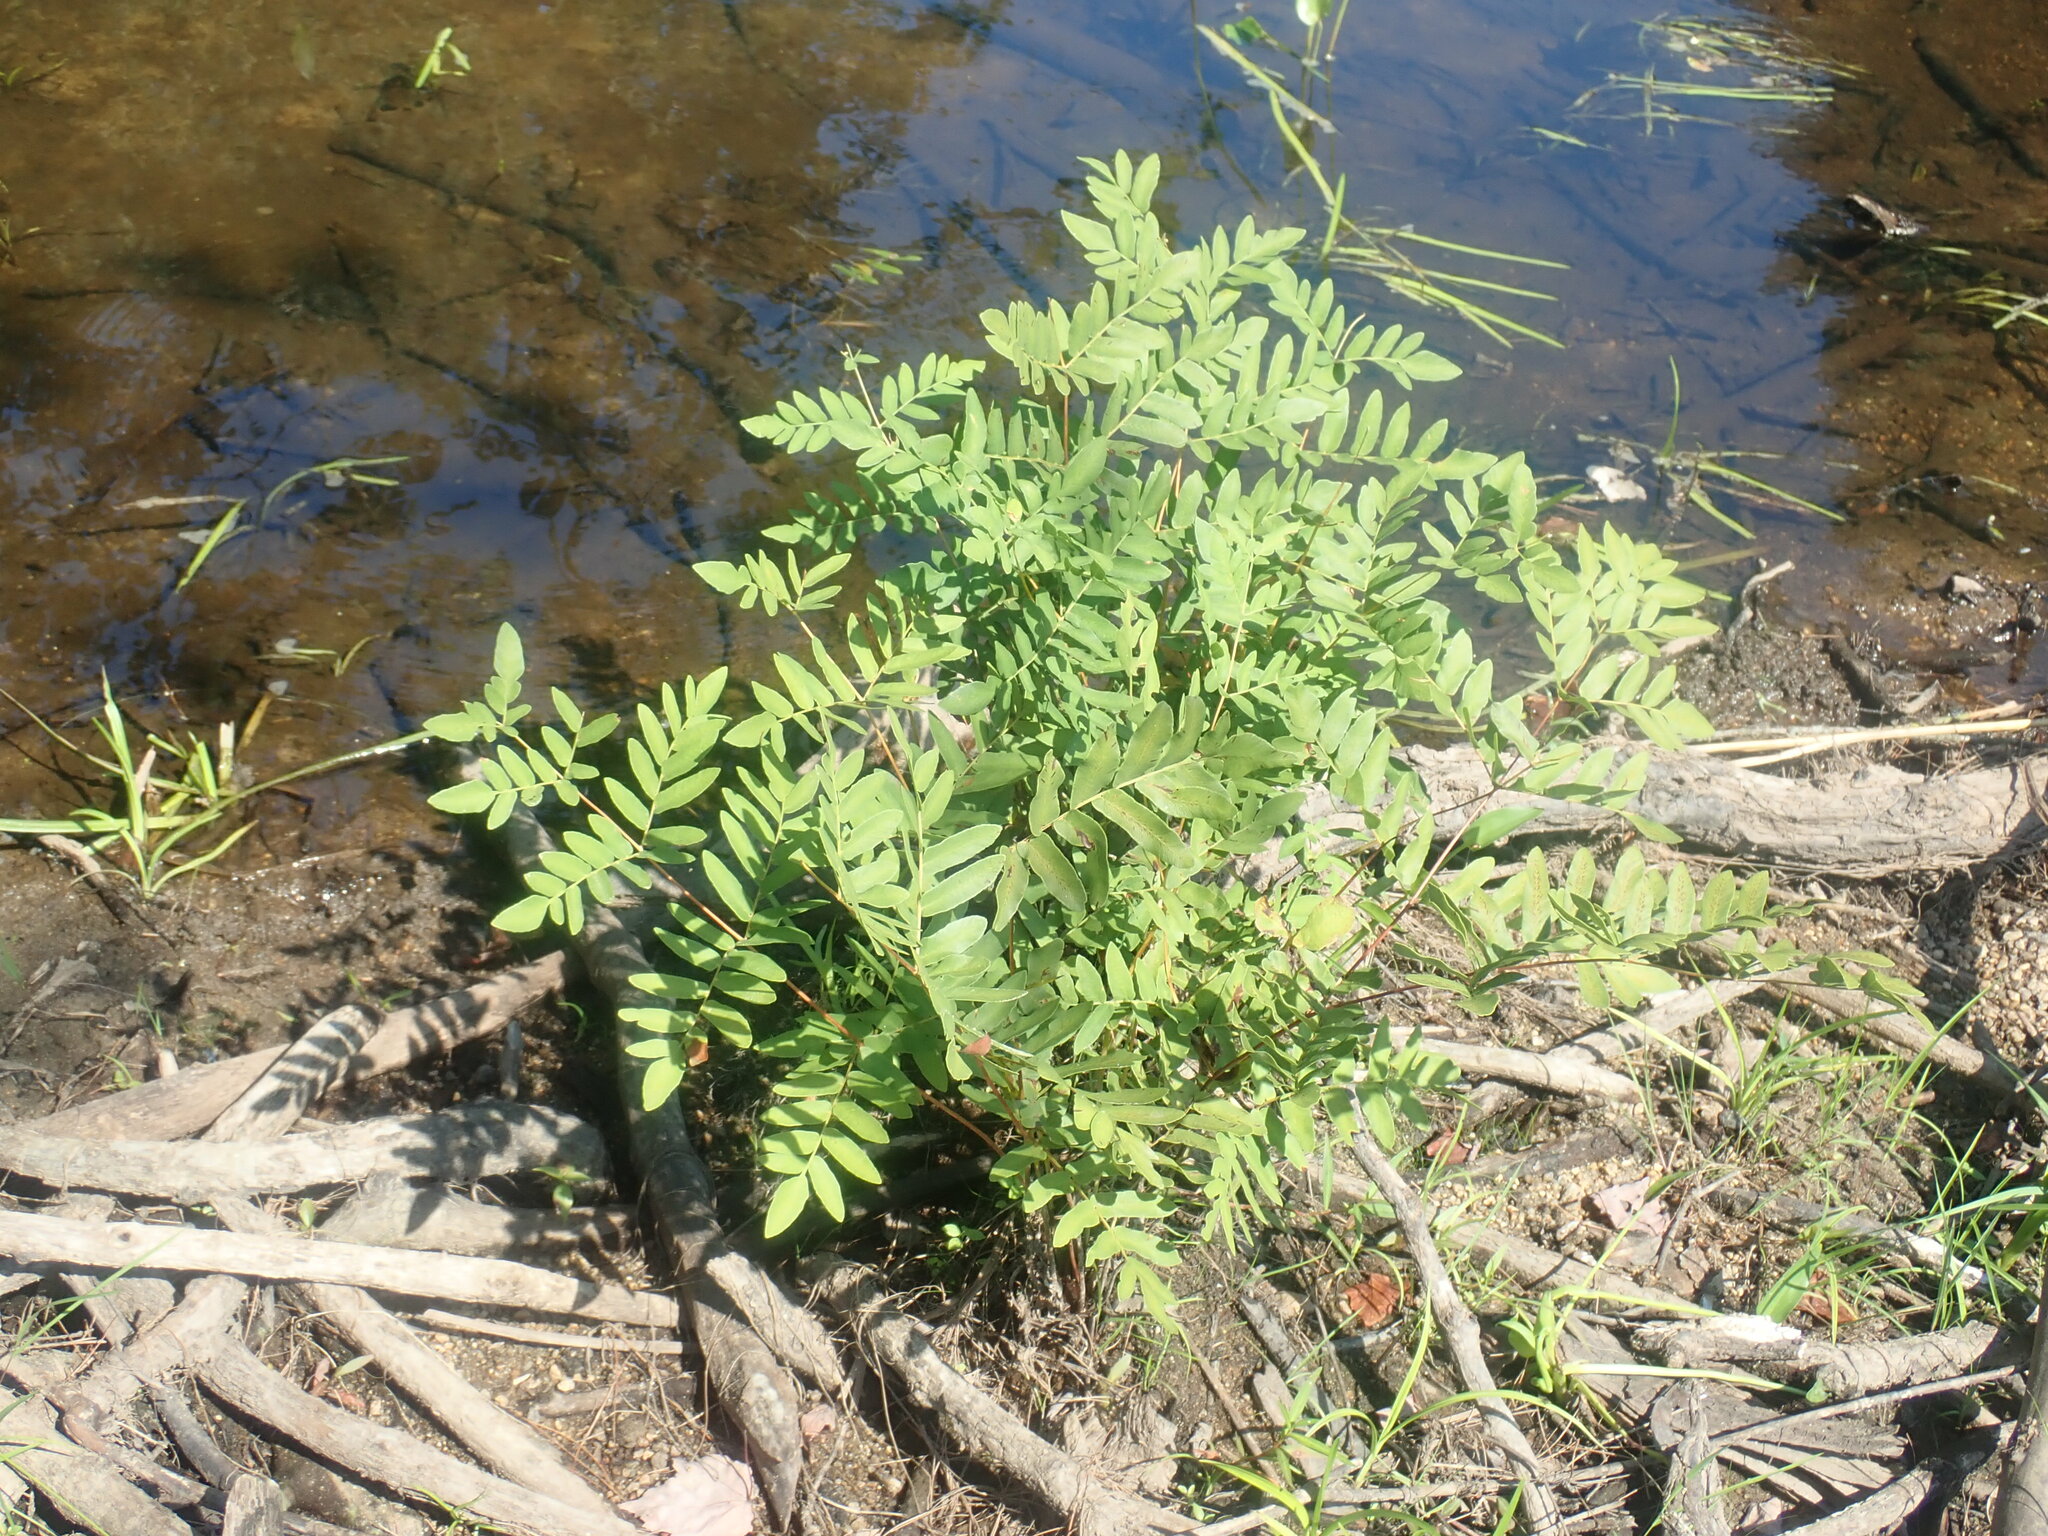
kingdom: Plantae
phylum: Tracheophyta
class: Polypodiopsida
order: Osmundales
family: Osmundaceae
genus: Osmunda
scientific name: Osmunda spectabilis
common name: American royal fern
